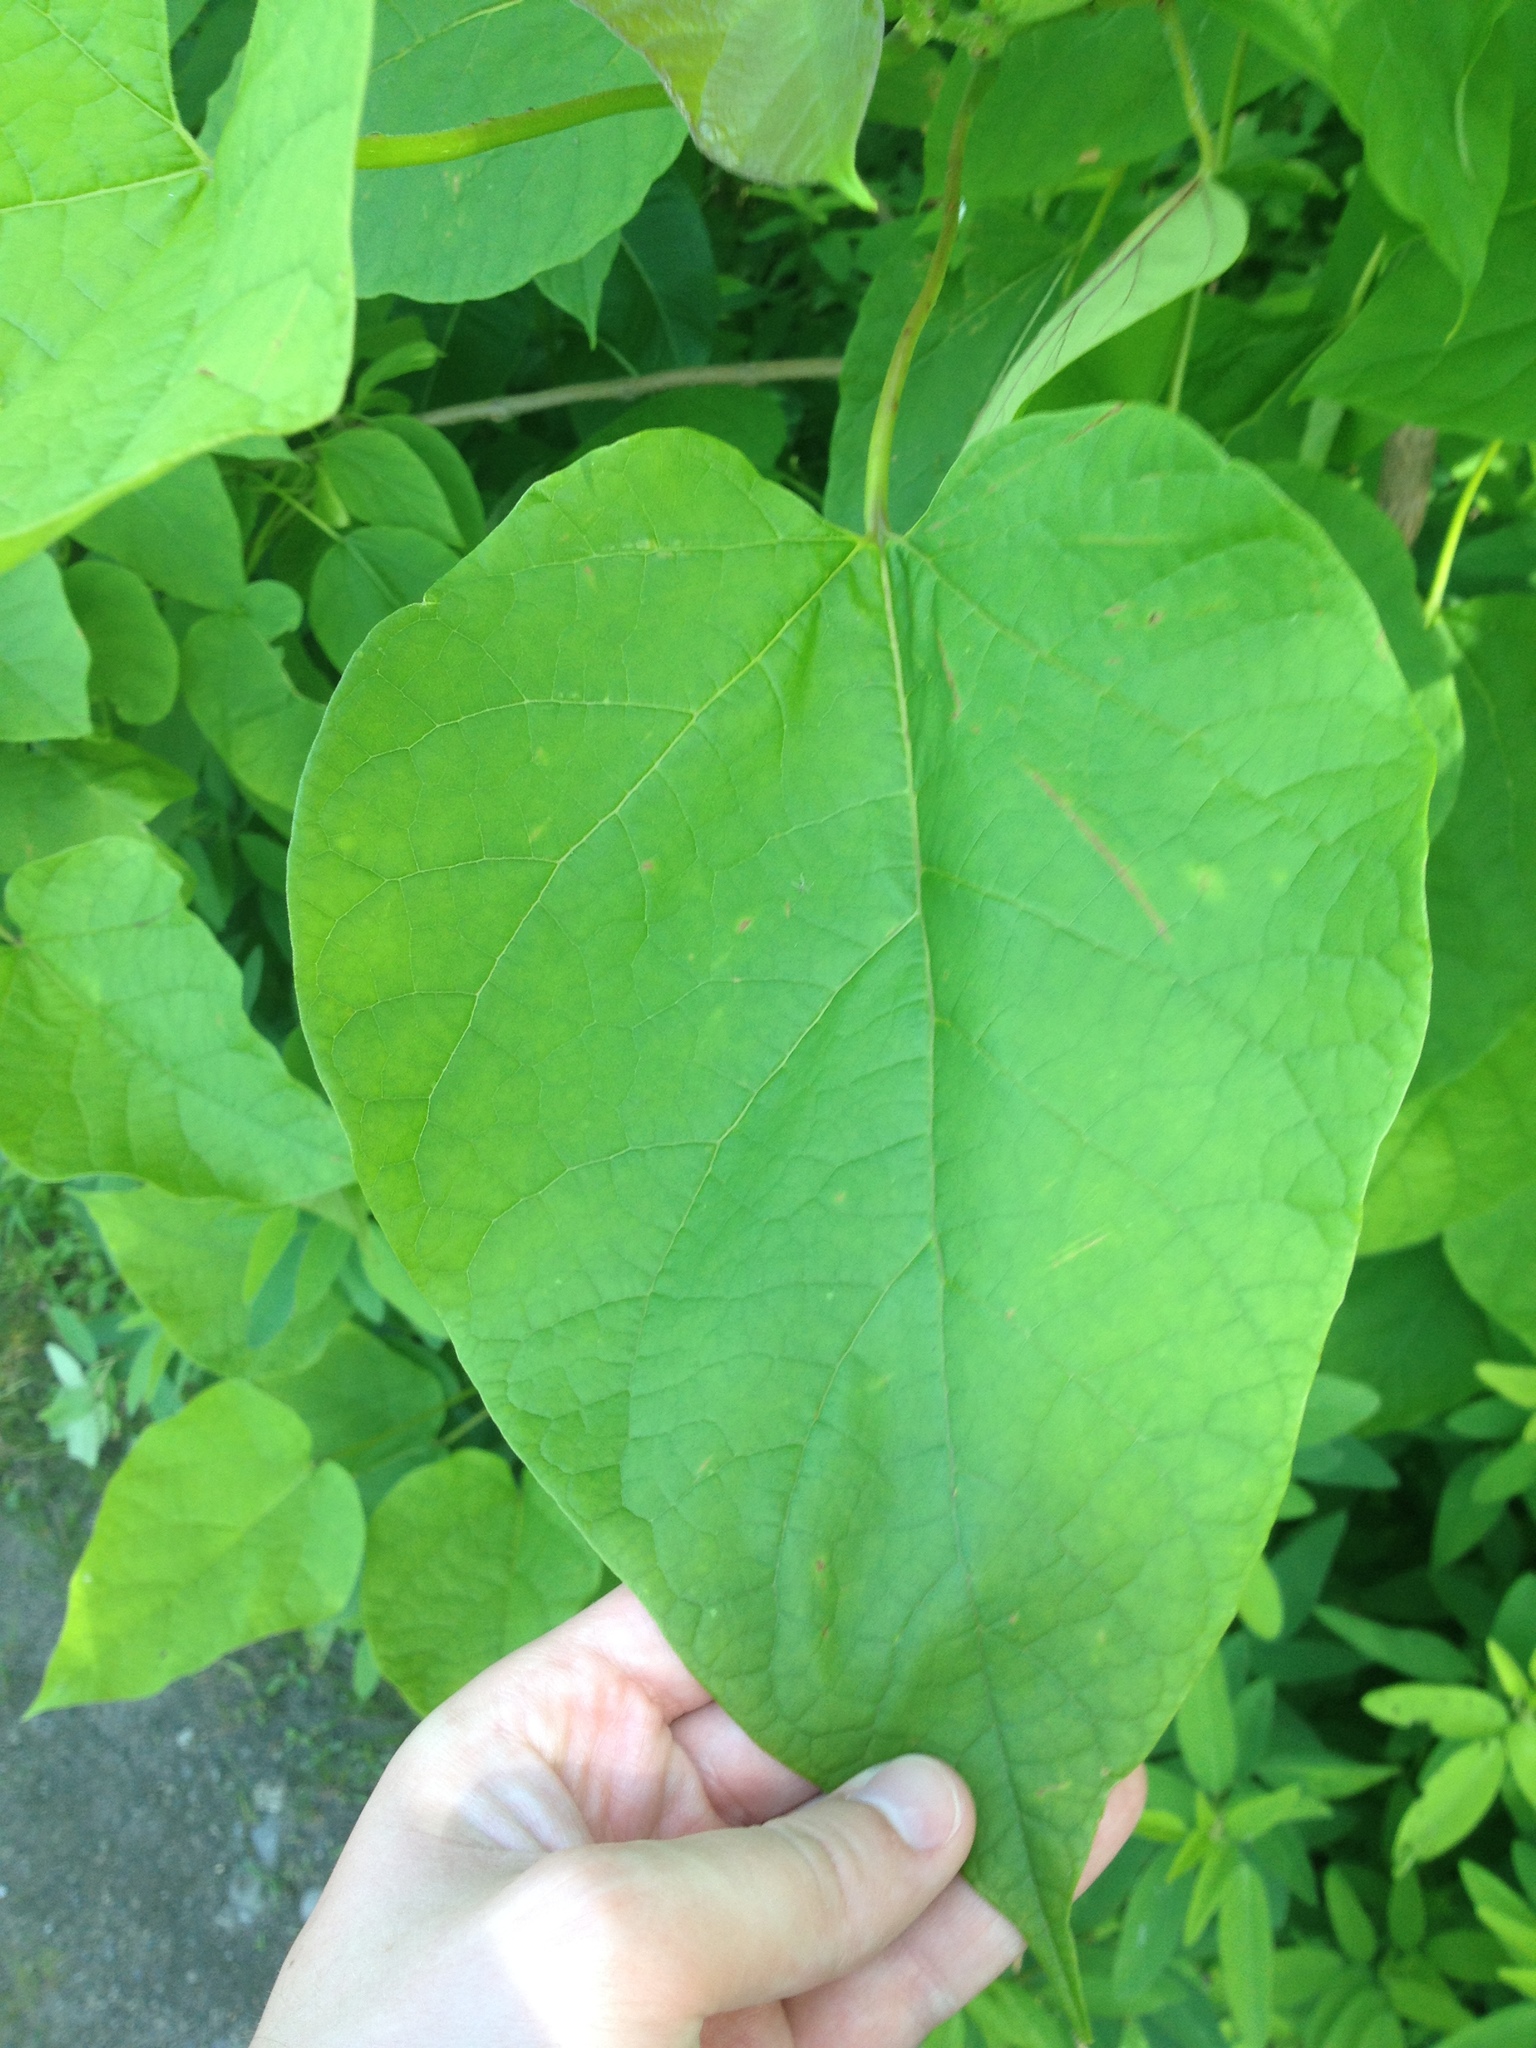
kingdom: Plantae
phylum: Tracheophyta
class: Magnoliopsida
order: Lamiales
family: Bignoniaceae
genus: Catalpa
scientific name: Catalpa speciosa
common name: Northern catalpa
